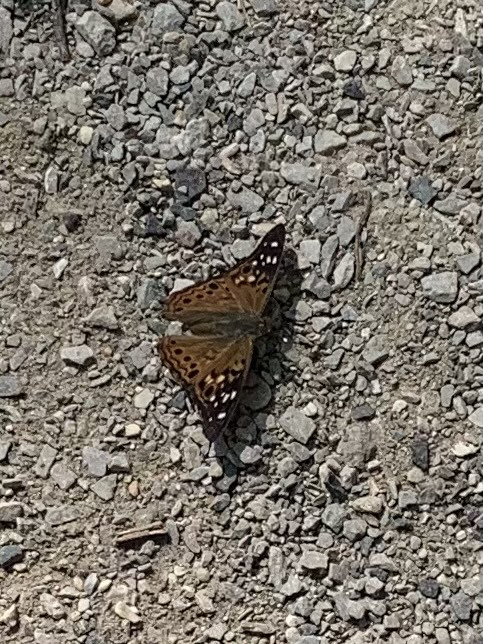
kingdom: Animalia
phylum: Arthropoda
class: Insecta
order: Lepidoptera
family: Nymphalidae
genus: Asterocampa
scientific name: Asterocampa celtis
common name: Hackberry emperor
